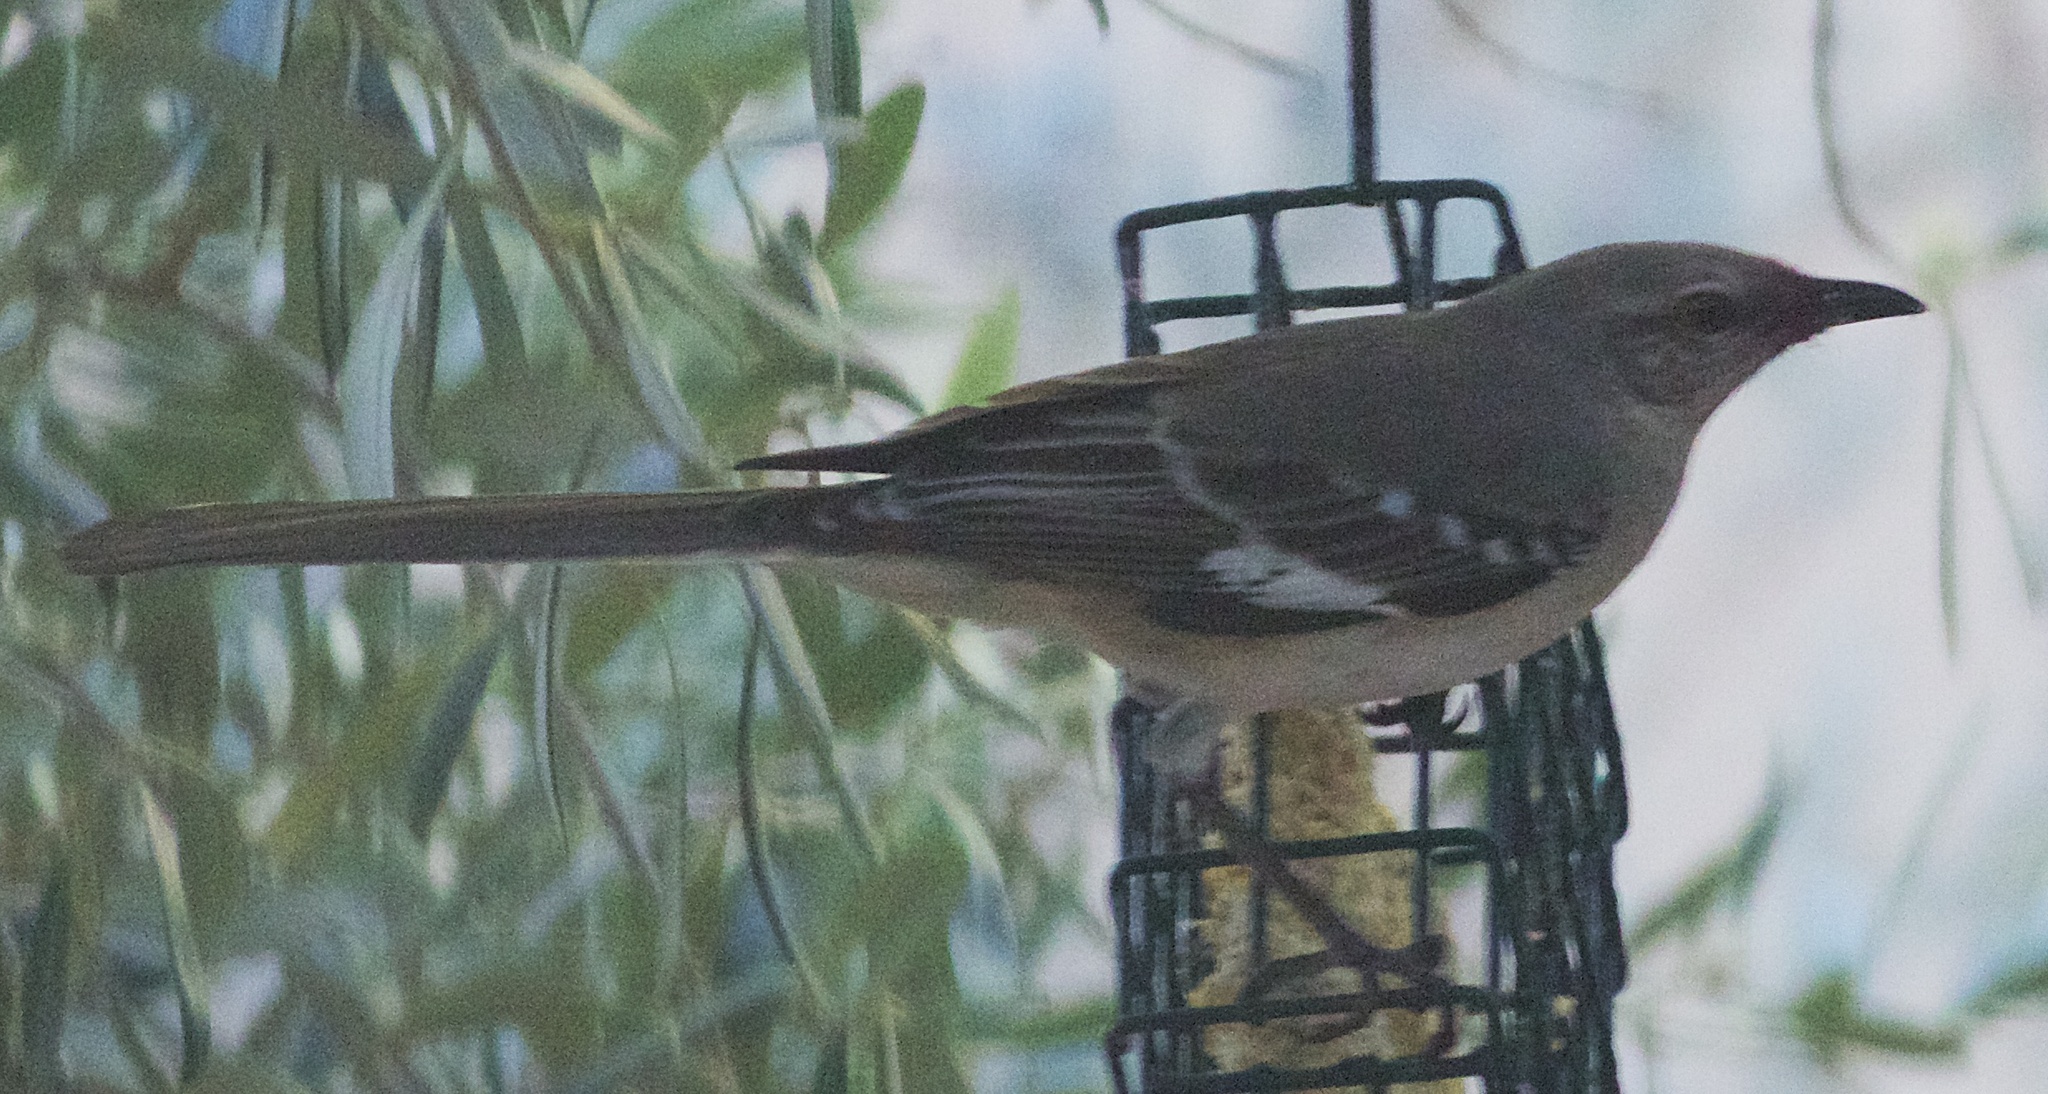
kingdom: Animalia
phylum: Chordata
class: Aves
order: Passeriformes
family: Mimidae
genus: Mimus
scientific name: Mimus polyglottos
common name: Northern mockingbird
